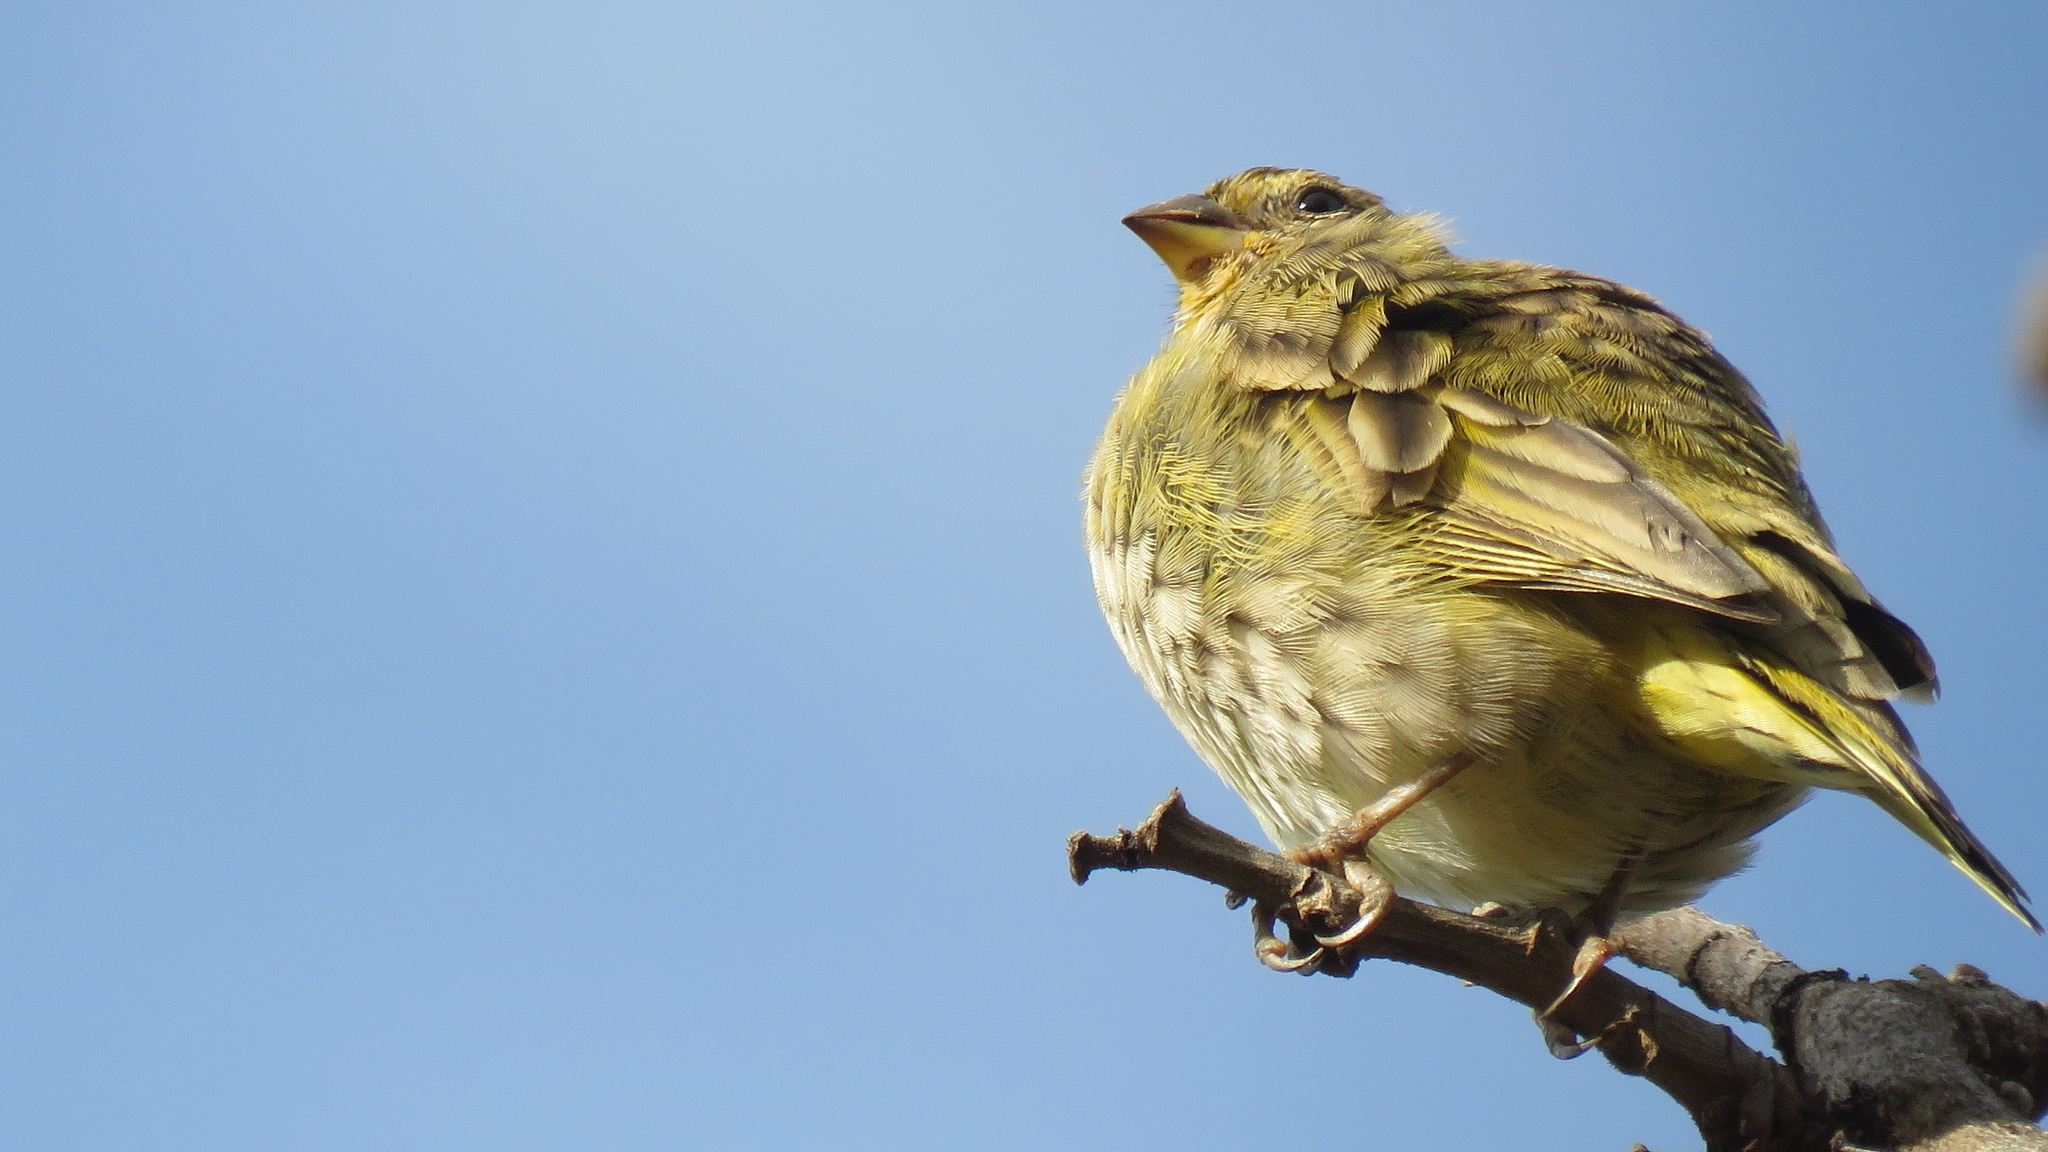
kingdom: Animalia
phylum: Chordata
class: Aves
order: Passeriformes
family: Thraupidae
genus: Sicalis
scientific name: Sicalis flaveola
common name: Saffron finch
